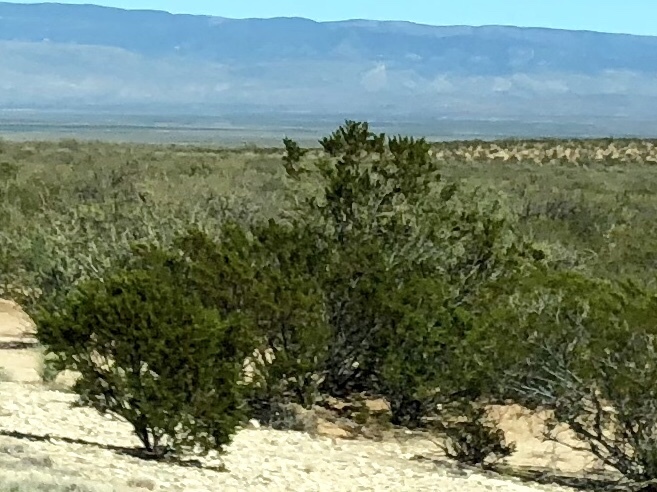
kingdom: Plantae
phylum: Tracheophyta
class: Magnoliopsida
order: Zygophyllales
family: Zygophyllaceae
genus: Larrea
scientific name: Larrea tridentata
